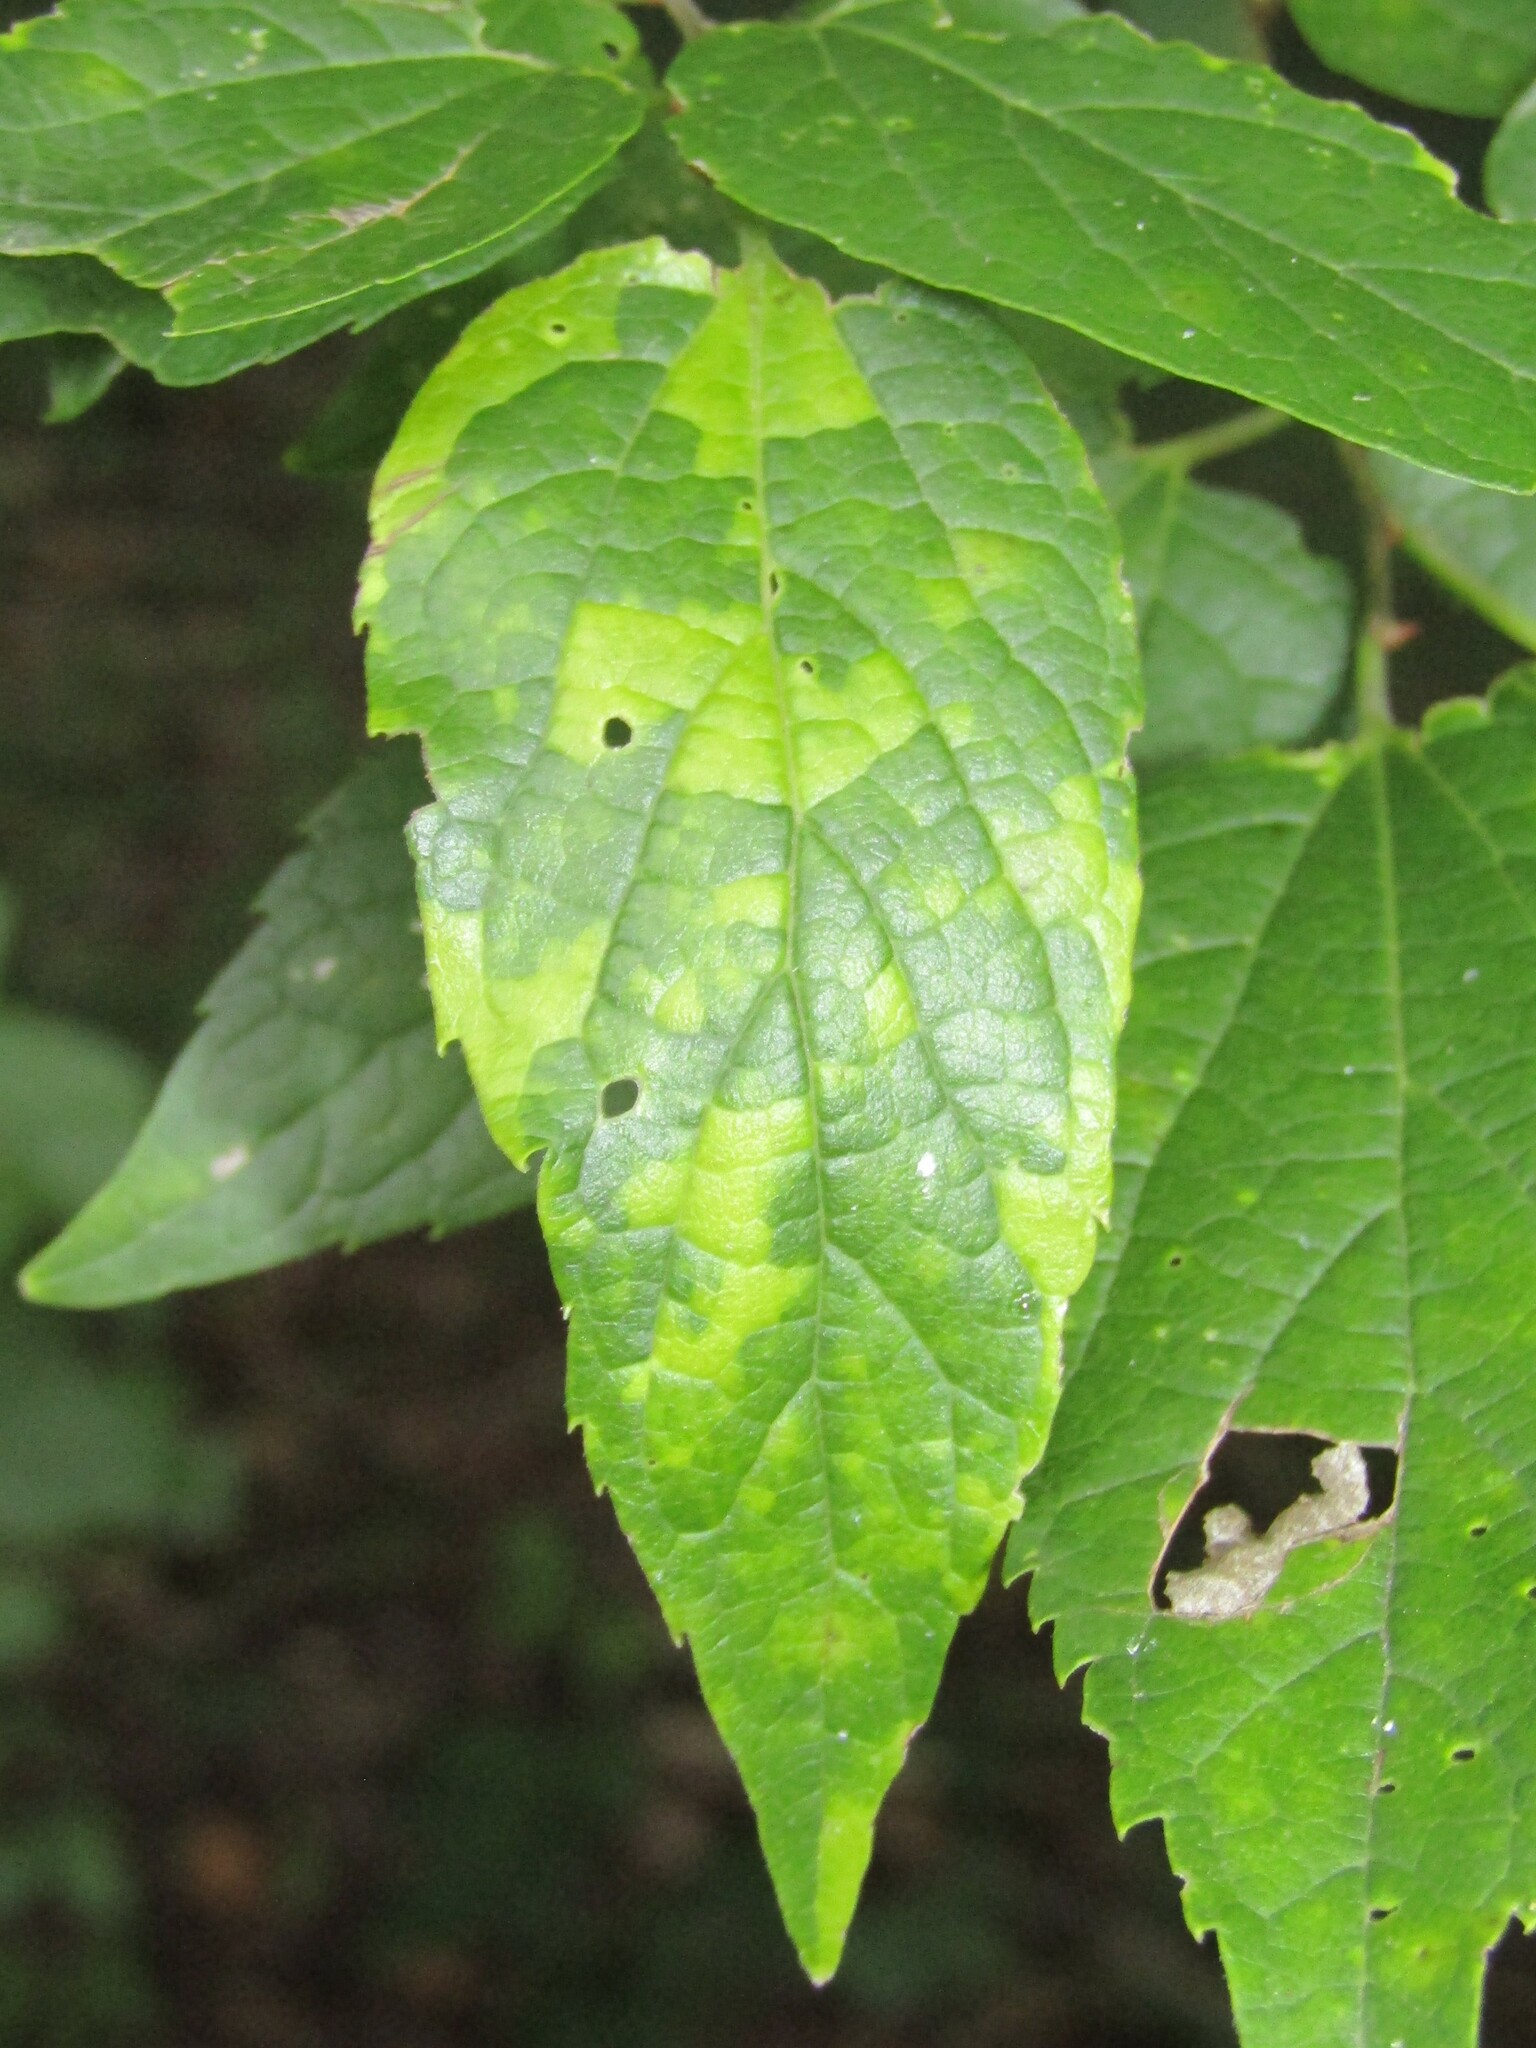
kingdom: Viruses
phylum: Kitrinoviricota
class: Alsuviricetes
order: Martellivirales
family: Closteroviridae
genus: Ampelovirus
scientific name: Ampelovirus
